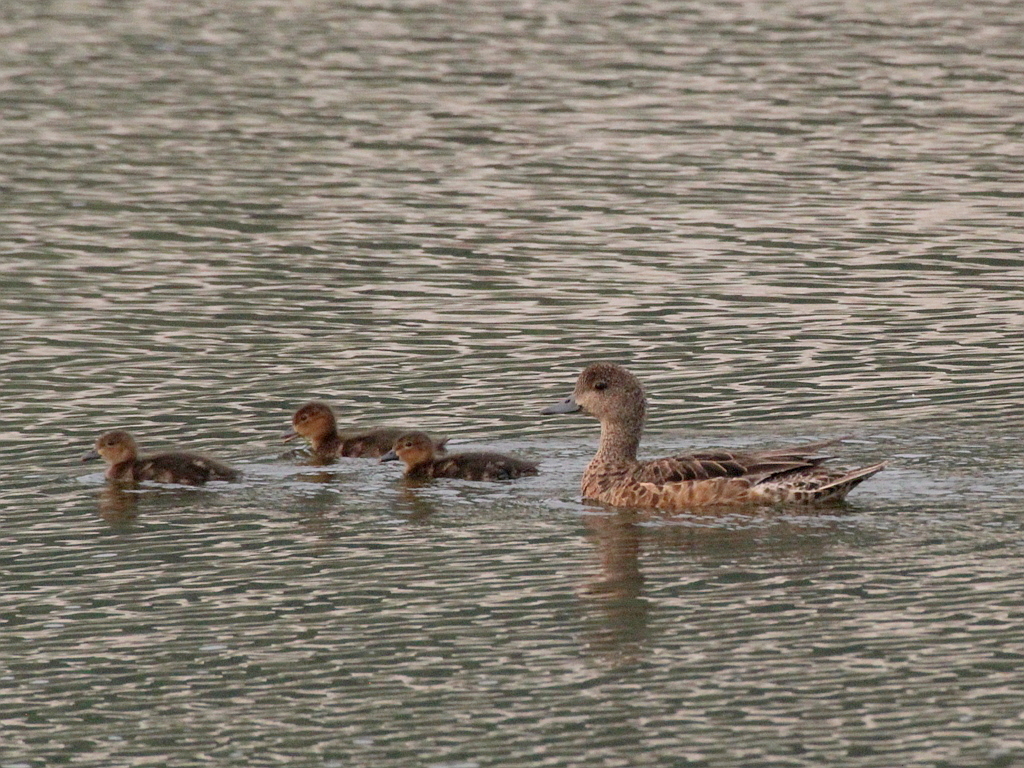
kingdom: Animalia
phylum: Chordata
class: Aves
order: Anseriformes
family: Anatidae
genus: Mareca
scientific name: Mareca penelope
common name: Eurasian wigeon
